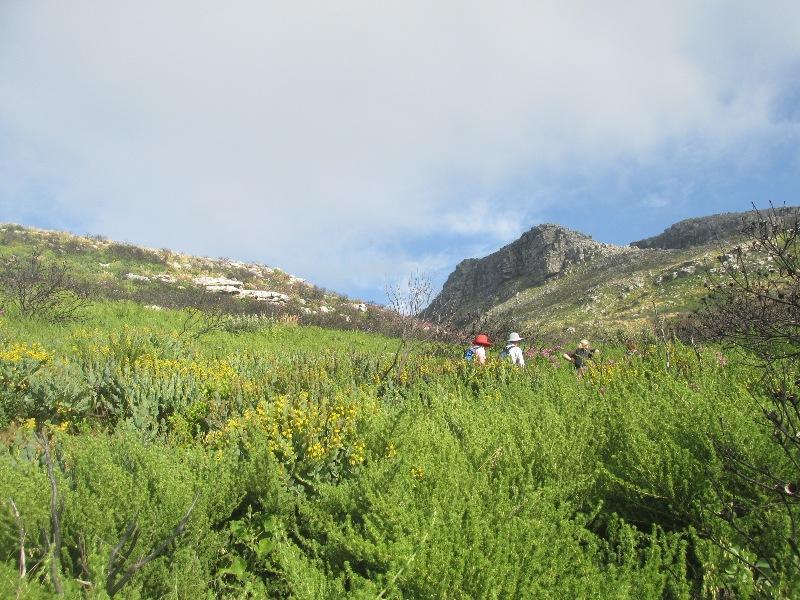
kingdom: Plantae
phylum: Tracheophyta
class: Magnoliopsida
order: Fabales
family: Fabaceae
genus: Aspalathus
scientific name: Aspalathus chenopoda
